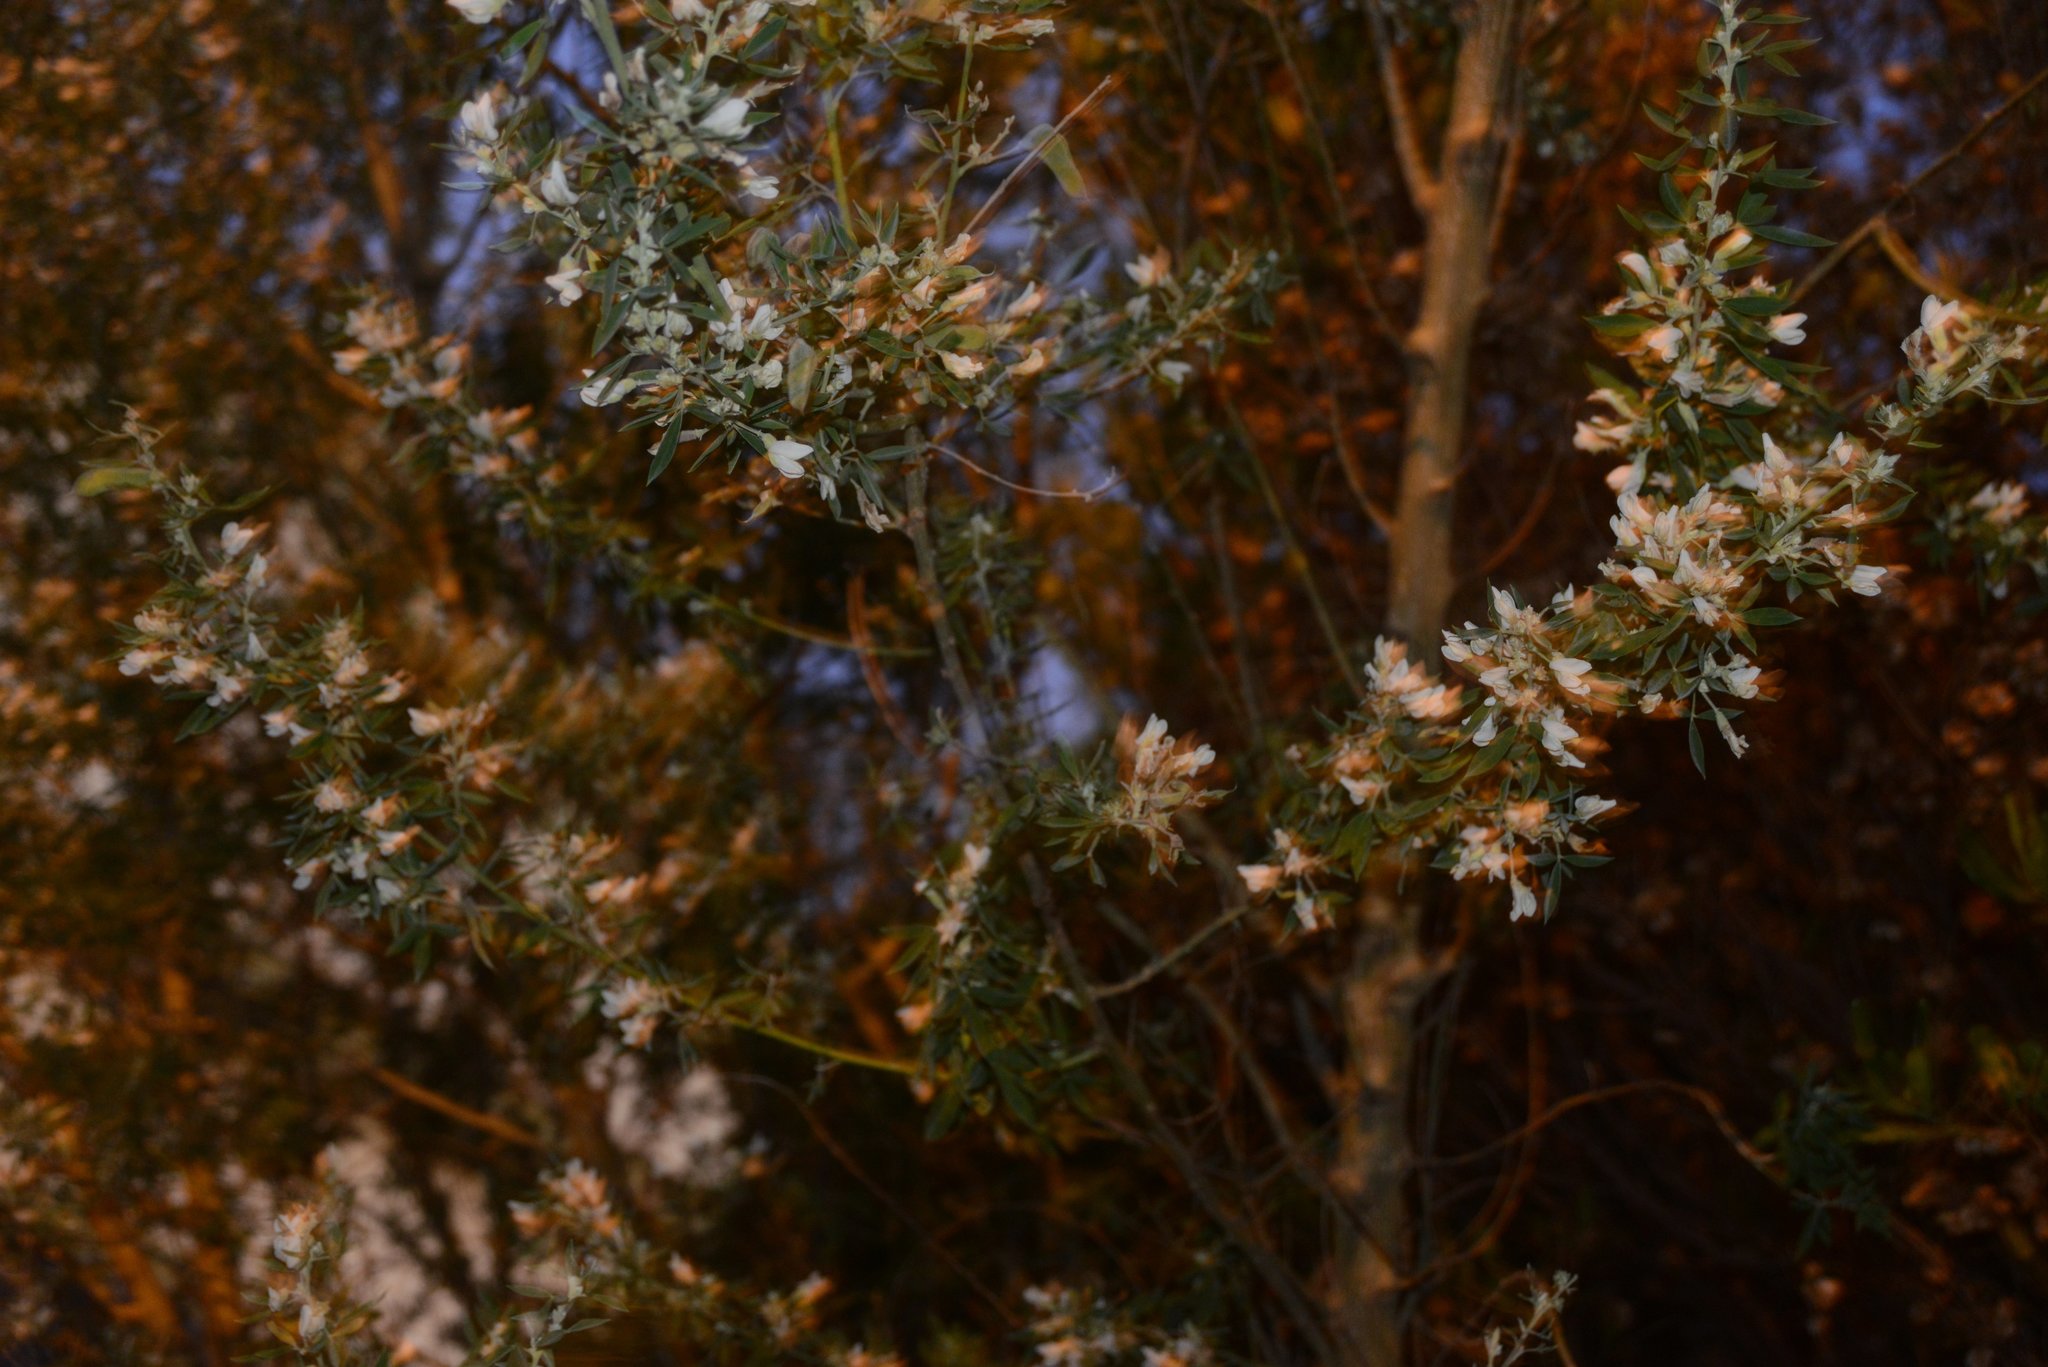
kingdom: Plantae
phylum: Tracheophyta
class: Magnoliopsida
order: Fabales
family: Fabaceae
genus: Chamaecytisus
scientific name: Chamaecytisus prolifer
